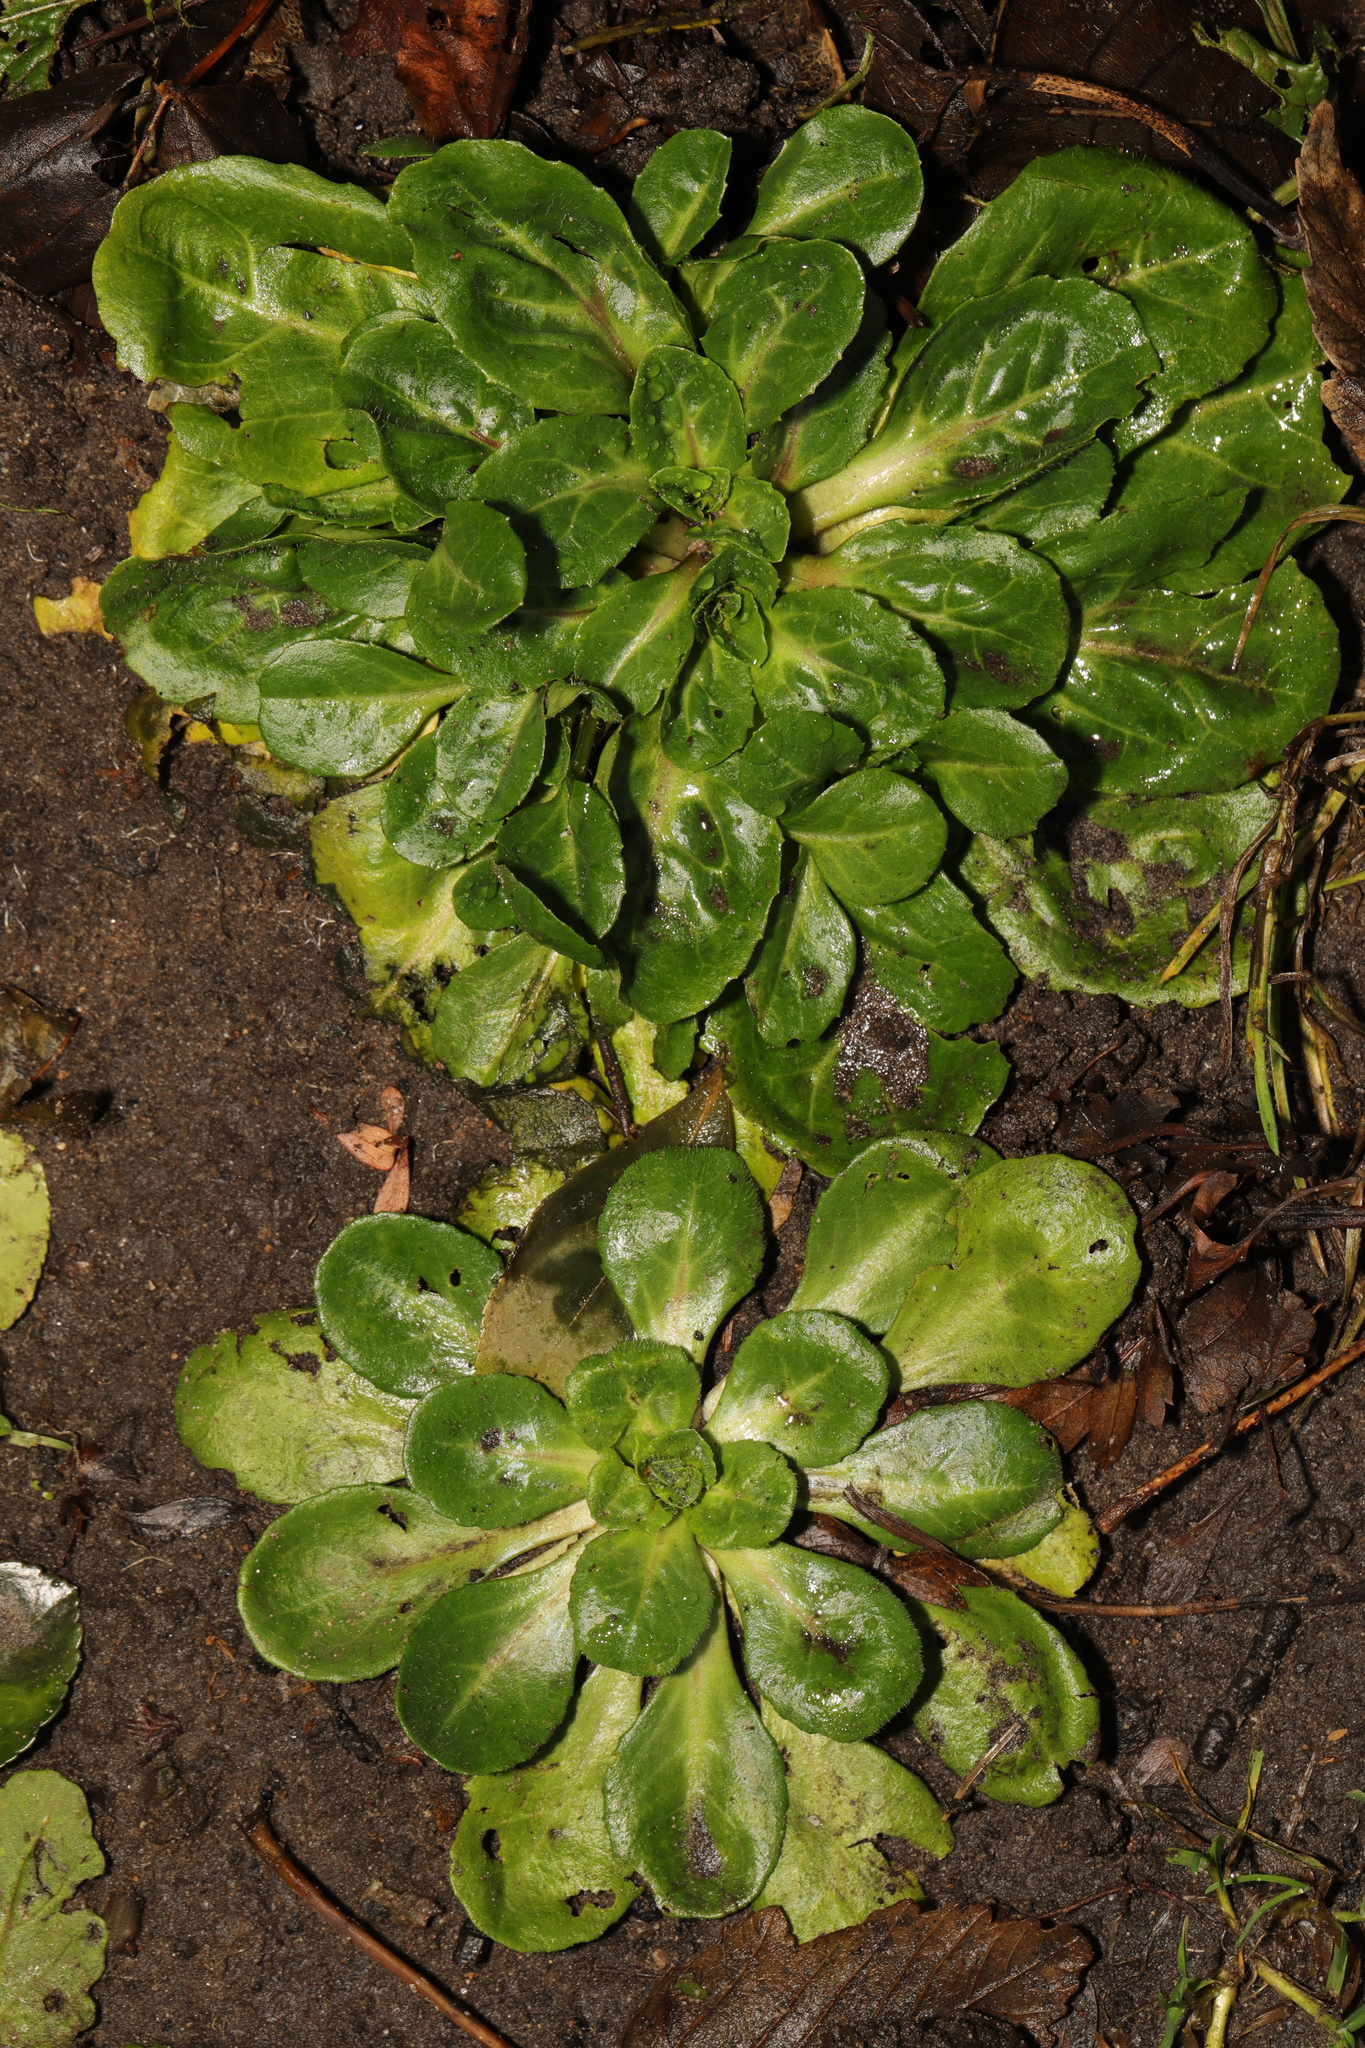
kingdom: Plantae
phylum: Tracheophyta
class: Magnoliopsida
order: Asterales
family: Asteraceae
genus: Bellis
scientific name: Bellis perennis
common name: Lawndaisy
